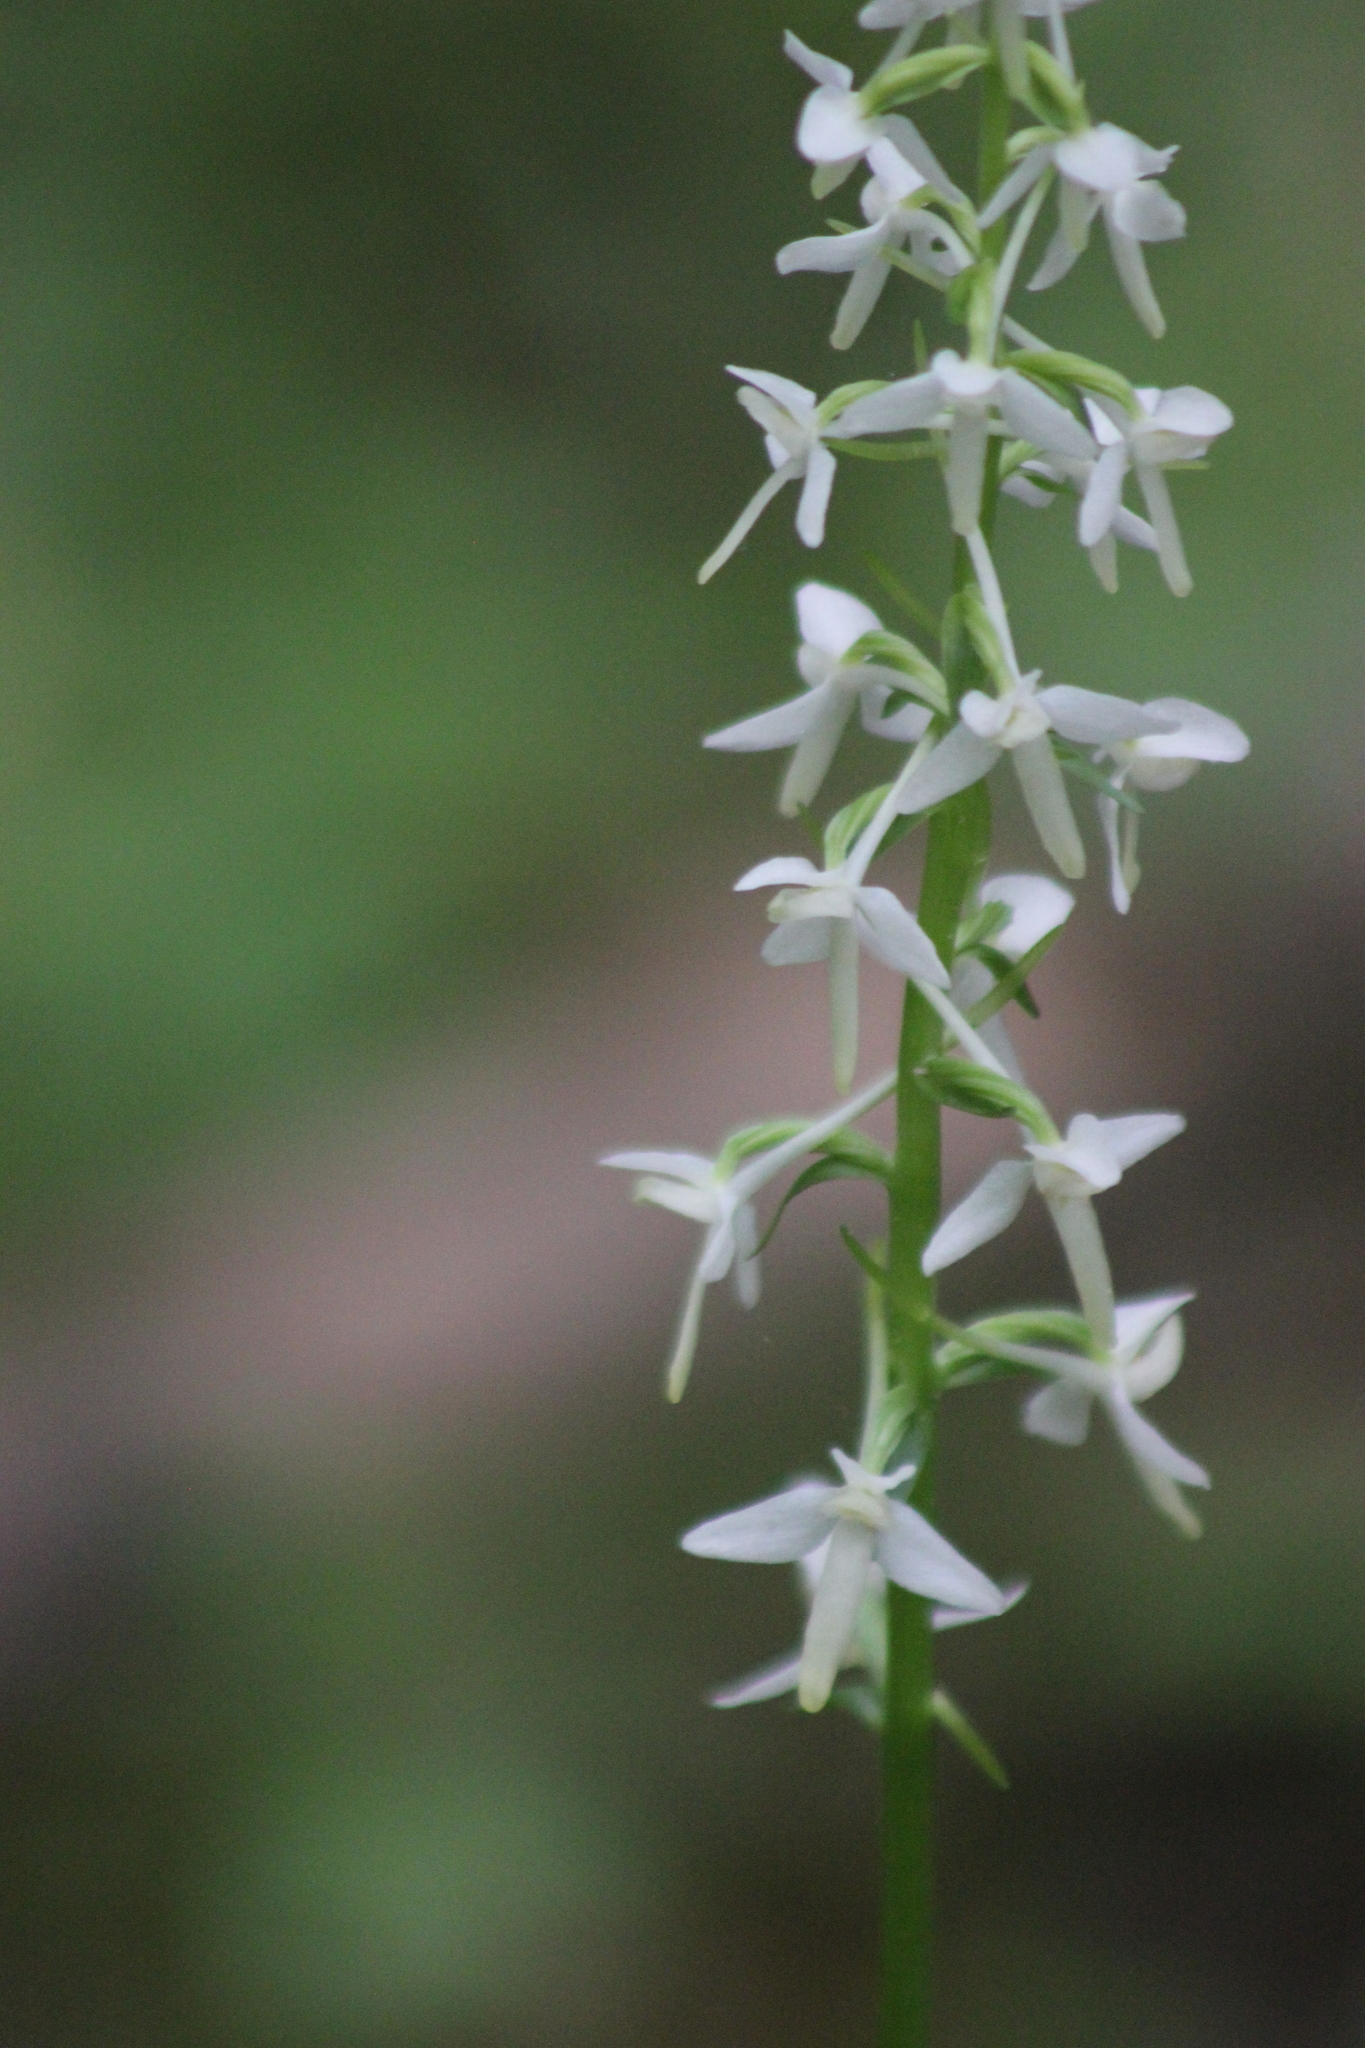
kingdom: Plantae
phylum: Tracheophyta
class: Liliopsida
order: Asparagales
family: Orchidaceae
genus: Platanthera
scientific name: Platanthera bifolia
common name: Lesser butterfly-orchid
